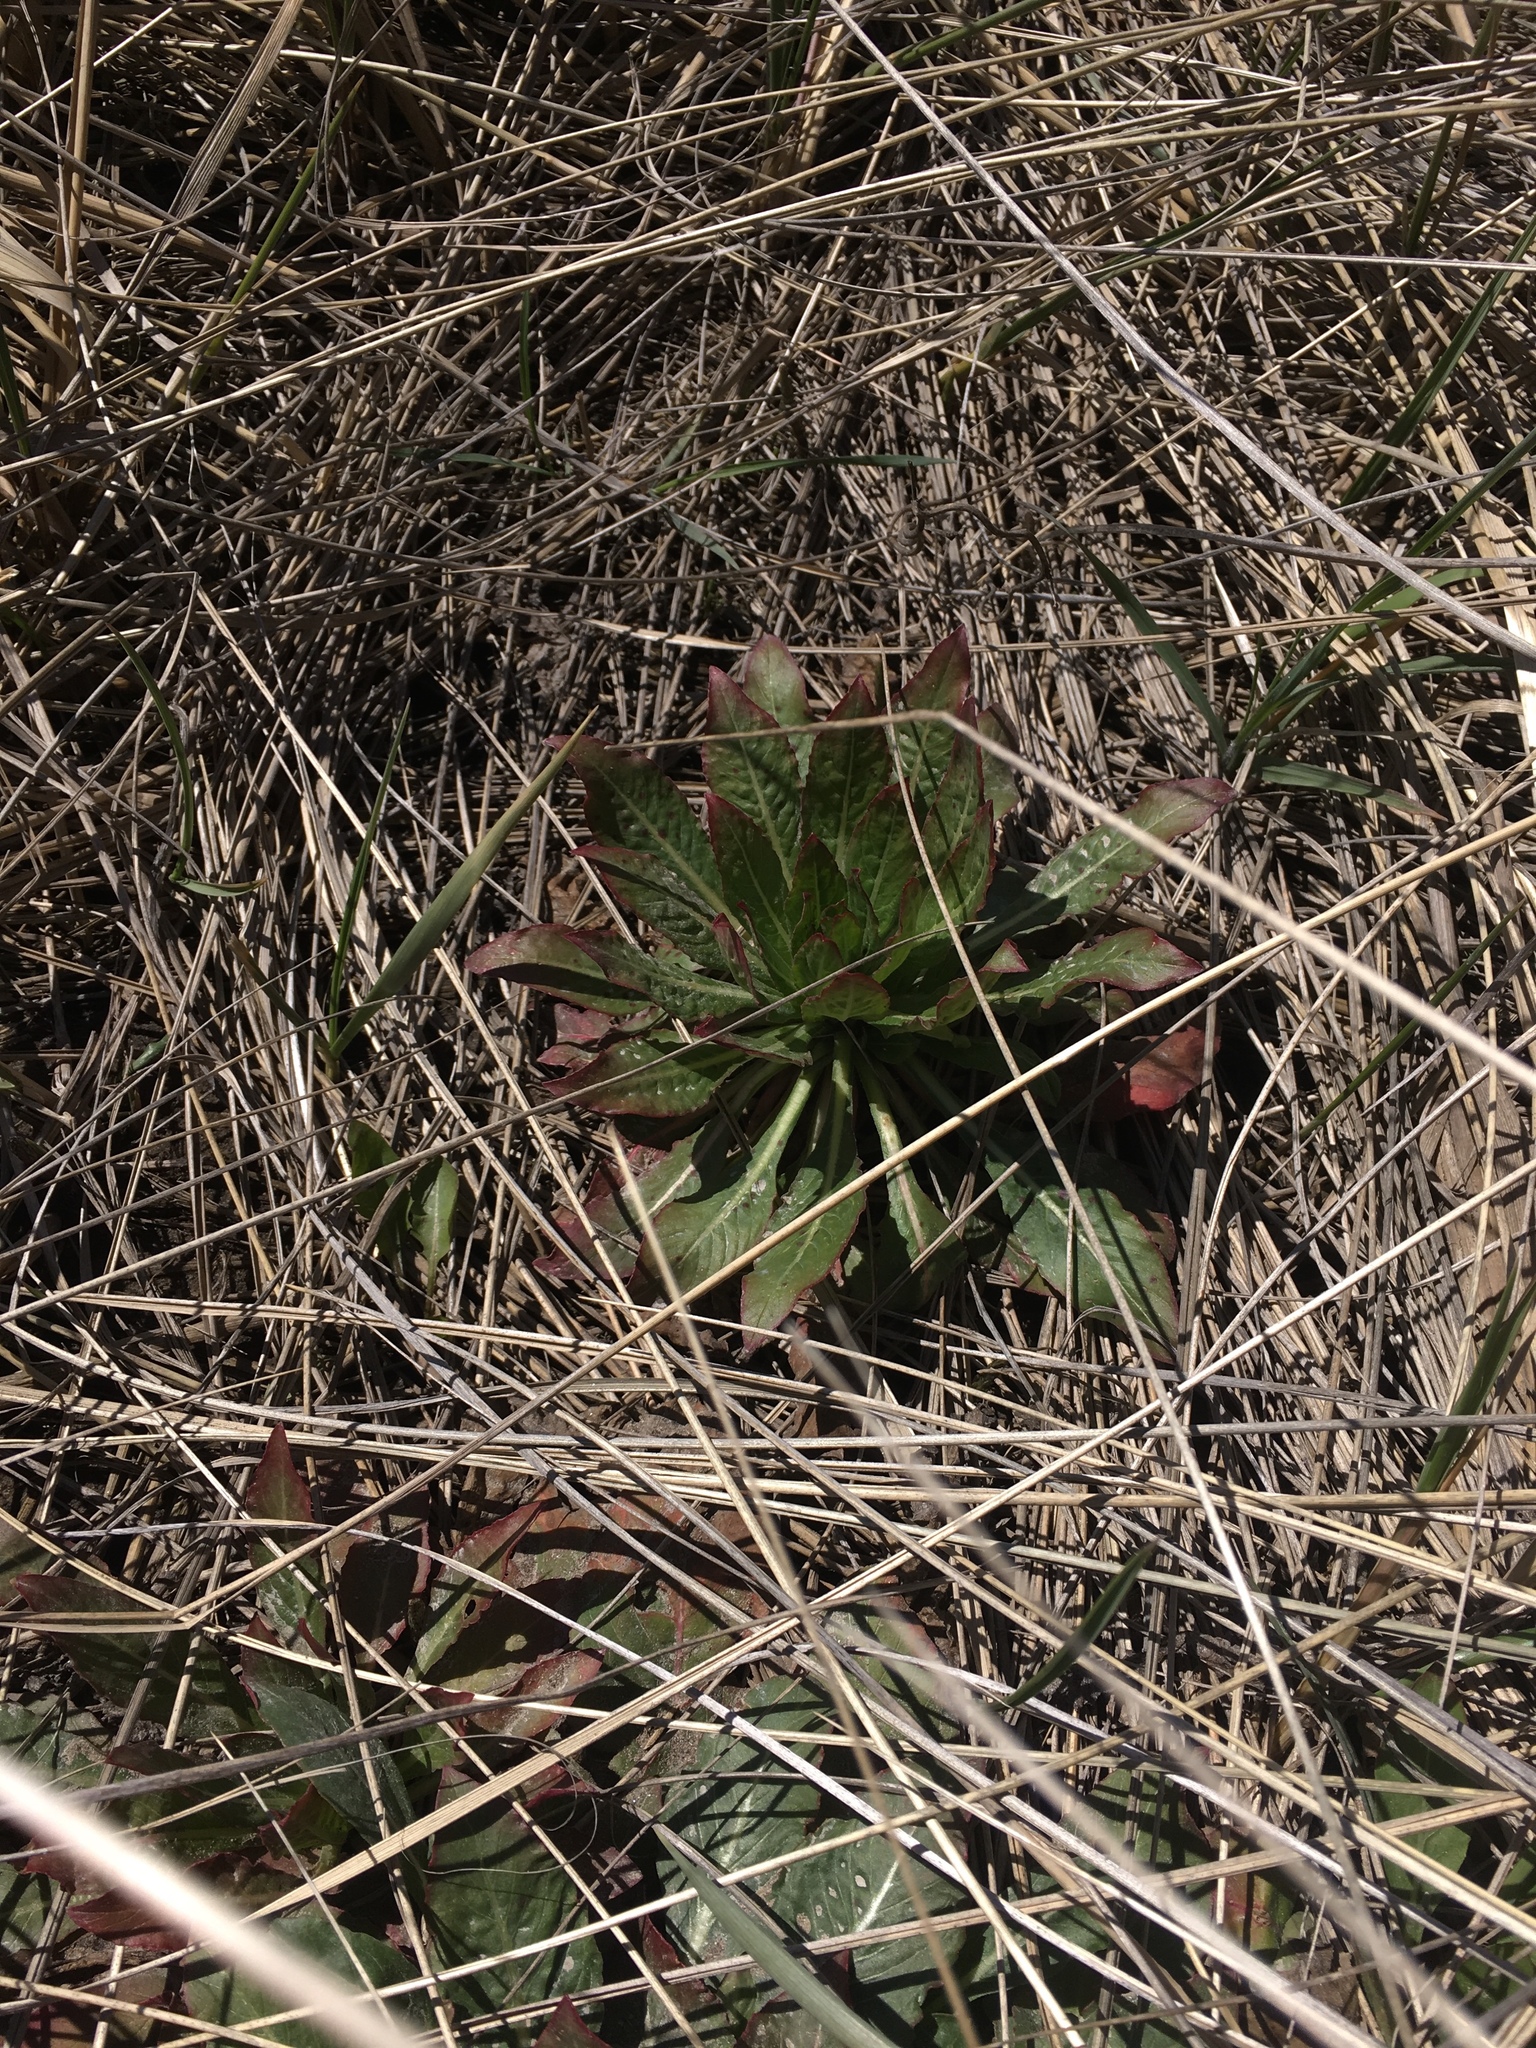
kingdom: Plantae
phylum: Tracheophyta
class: Magnoliopsida
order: Myrtales
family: Onagraceae
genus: Oenothera
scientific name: Oenothera biennis
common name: Common evening-primrose
